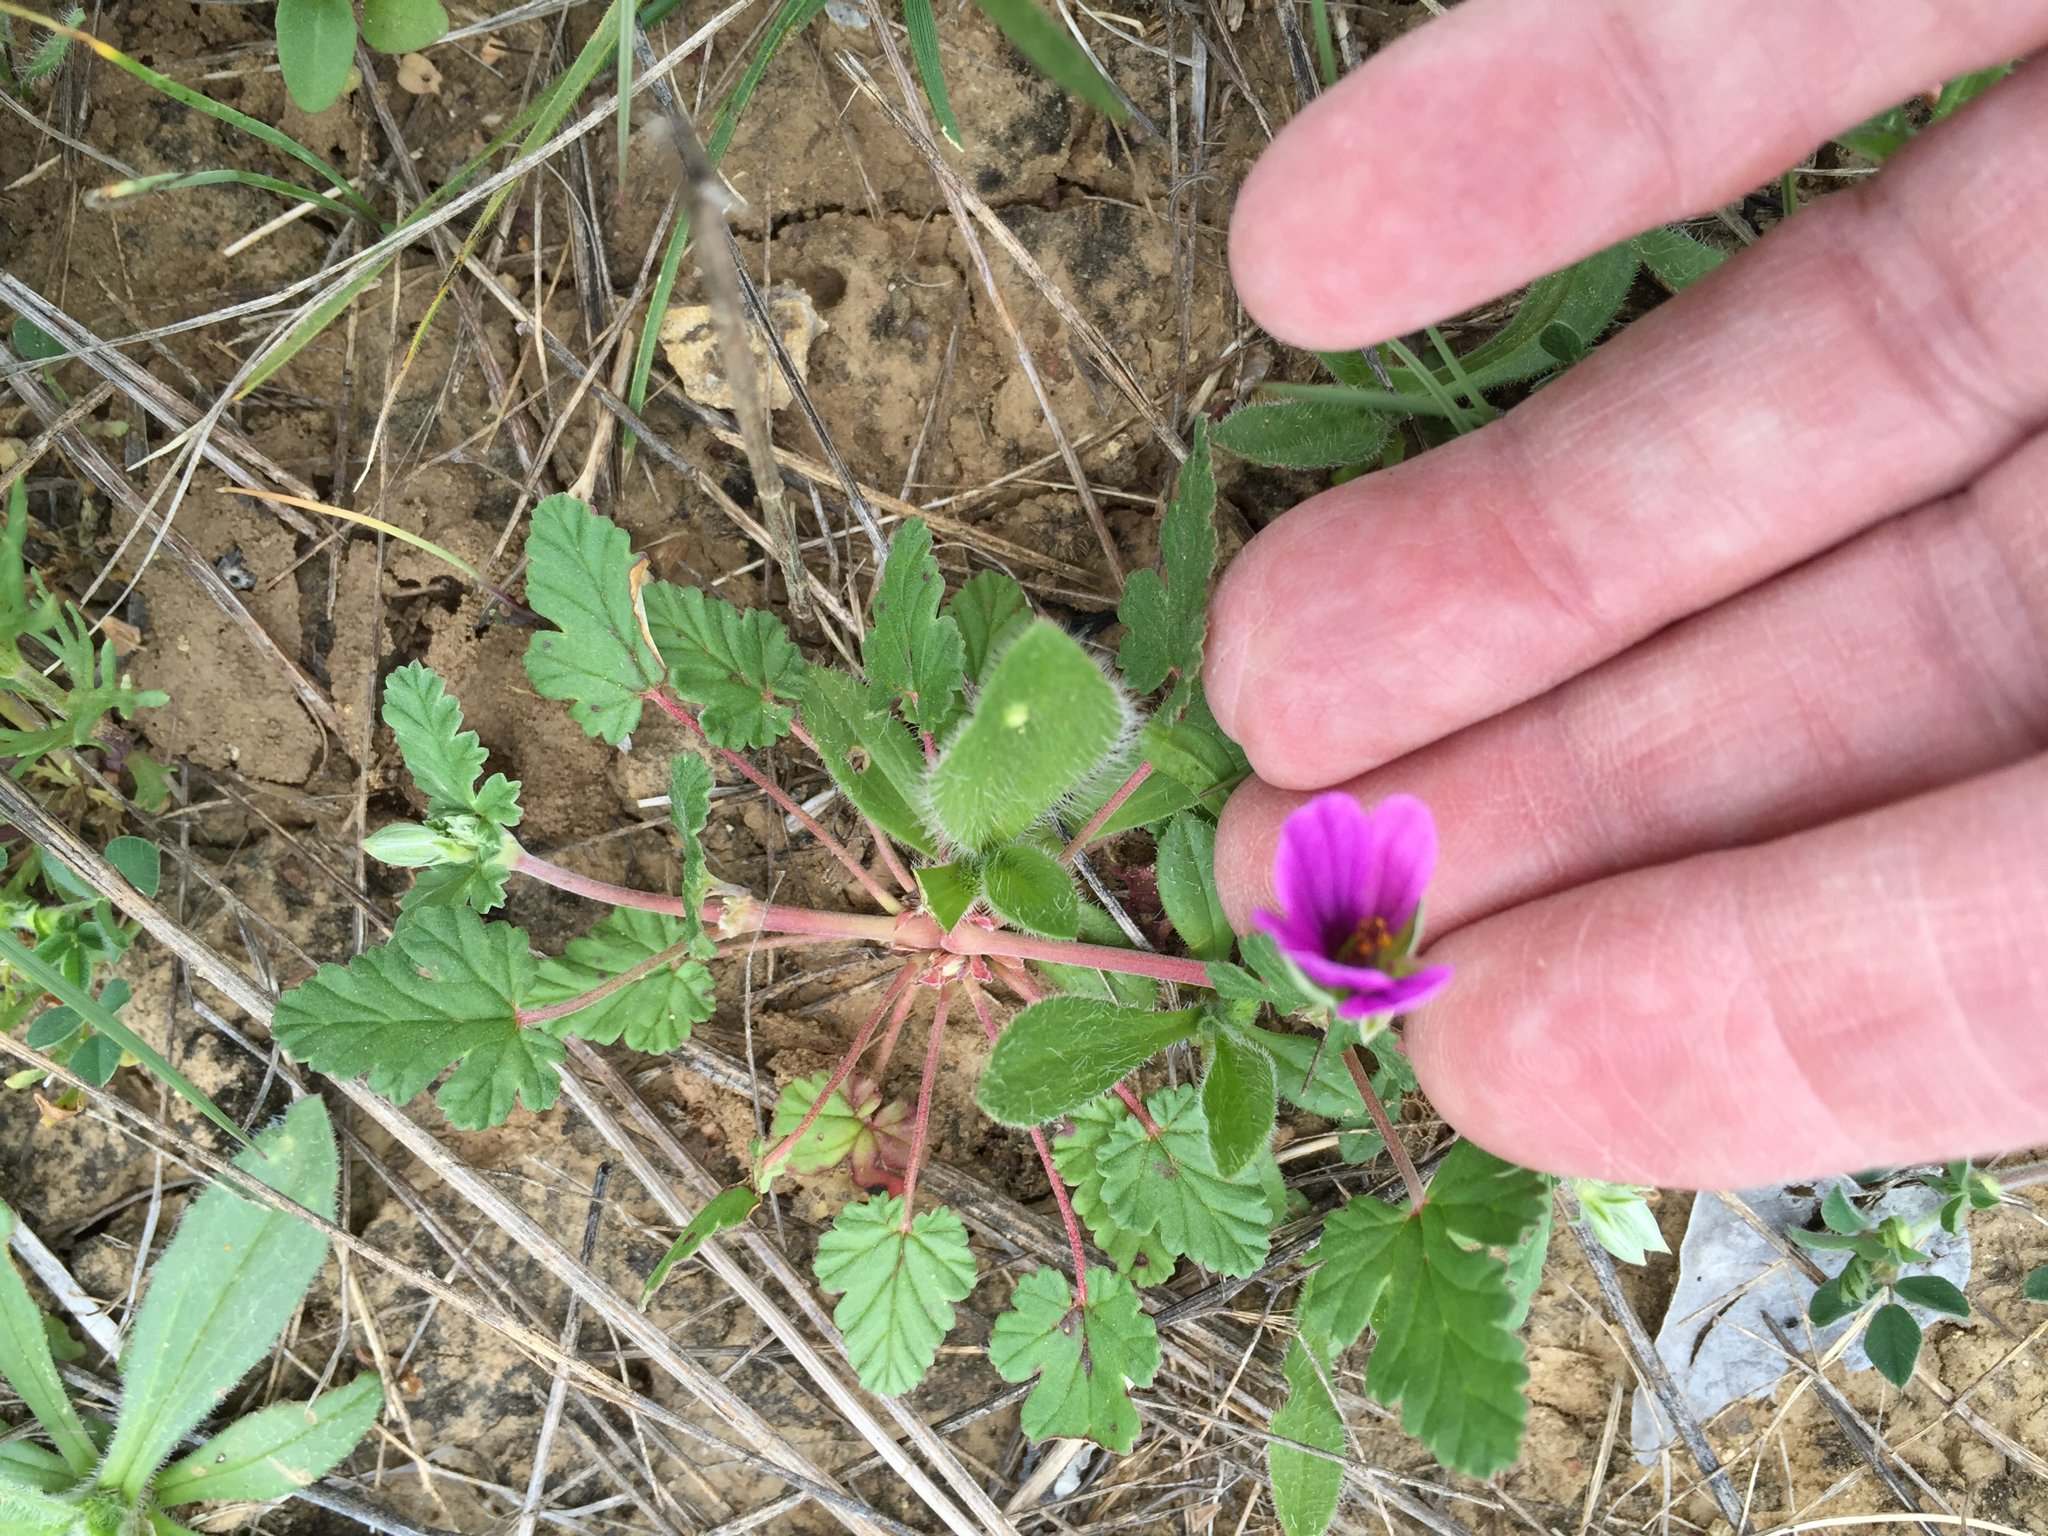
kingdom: Plantae
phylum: Tracheophyta
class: Magnoliopsida
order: Geraniales
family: Geraniaceae
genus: Erodium
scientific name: Erodium texanum
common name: Texas stork's-bill
